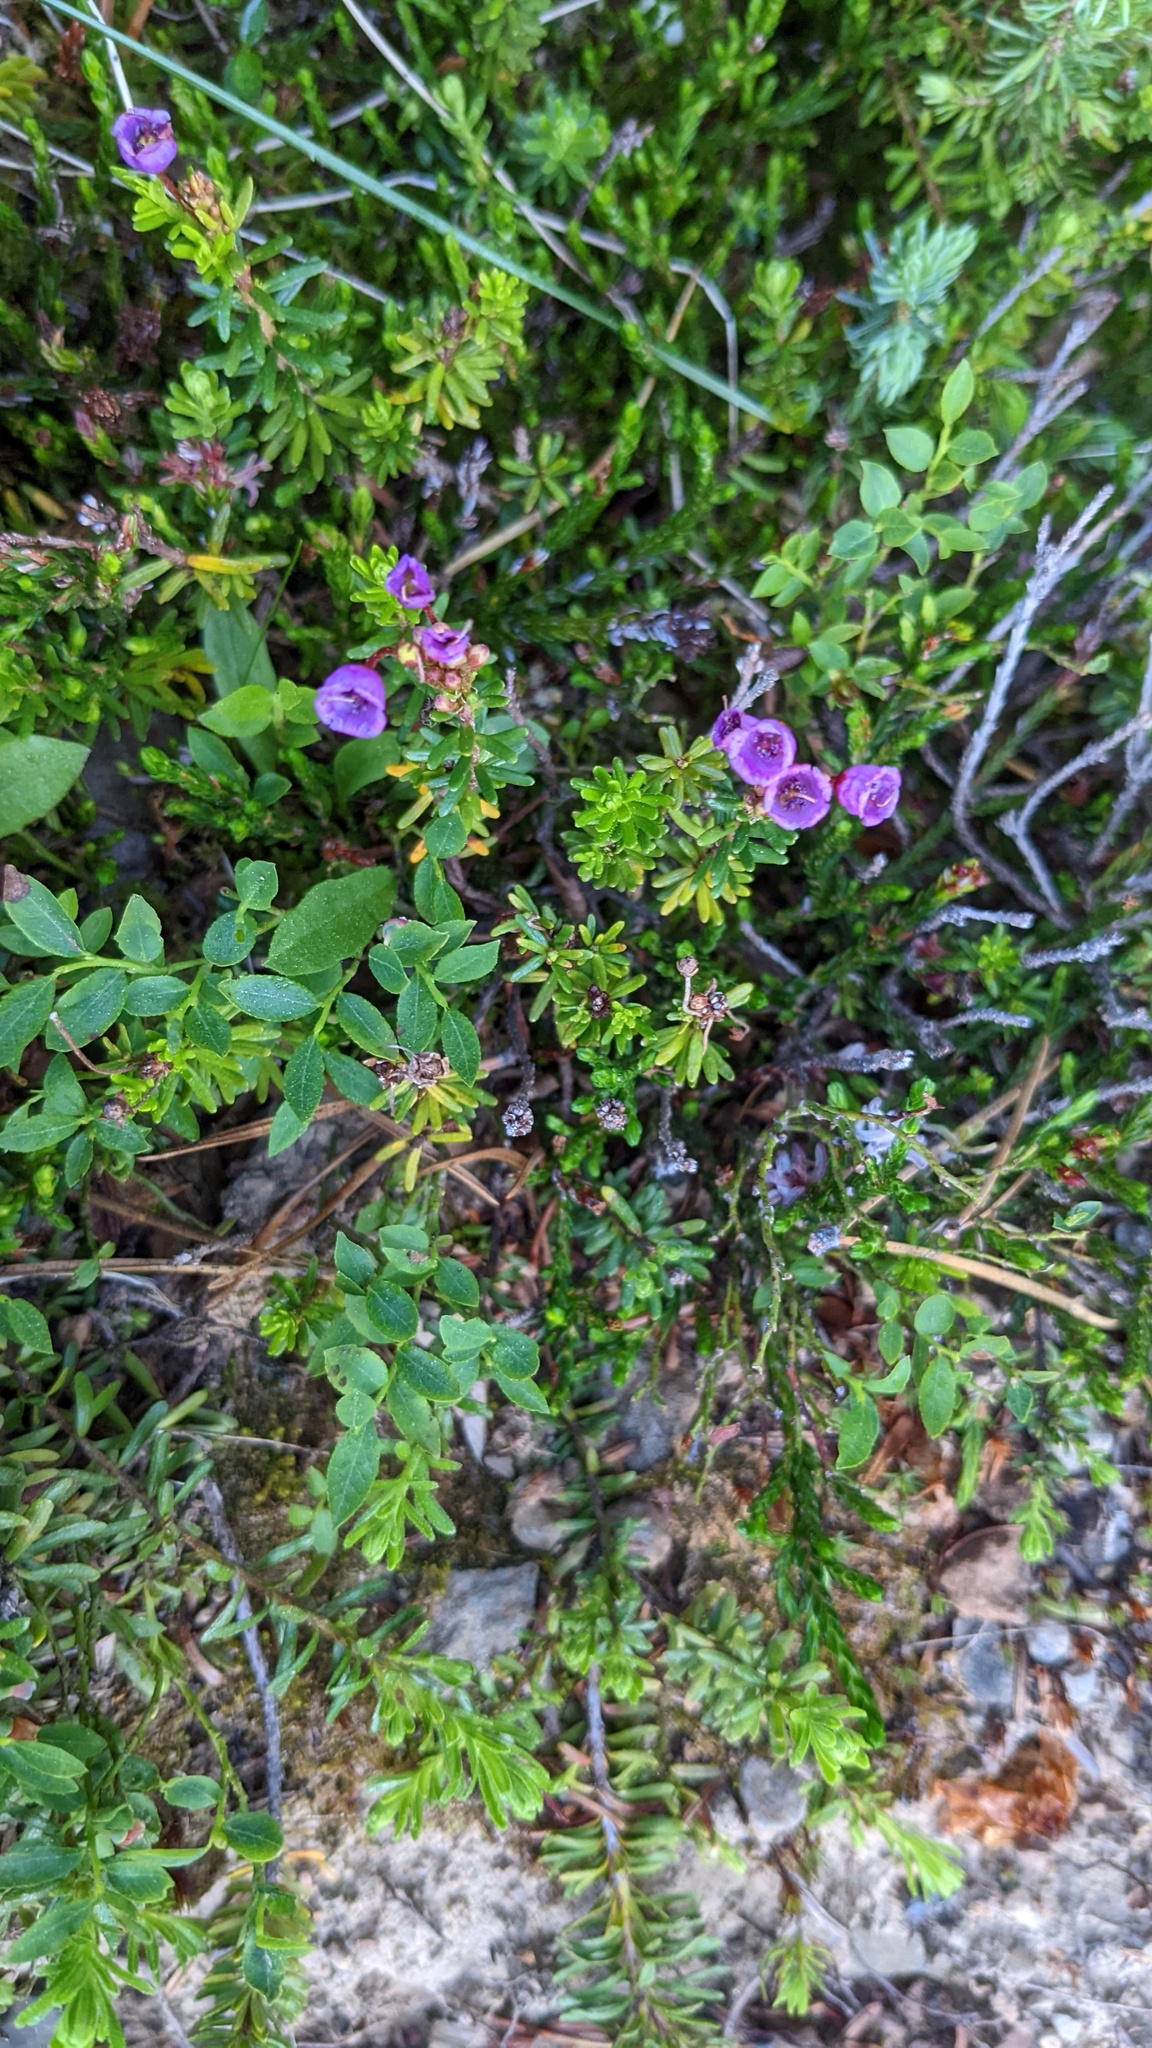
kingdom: Plantae
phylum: Tracheophyta
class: Magnoliopsida
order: Ericales
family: Ericaceae
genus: Phyllodoce
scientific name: Phyllodoce empetriformis
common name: Pink mountain heather
